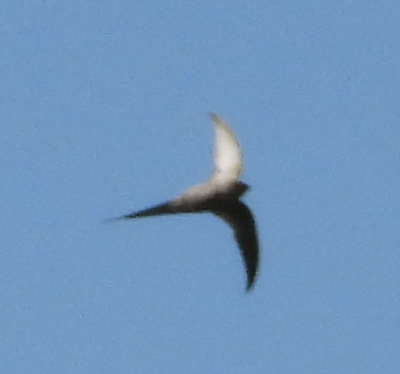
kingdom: Animalia
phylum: Chordata
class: Aves
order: Apodiformes
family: Apodidae
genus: Cypsiurus
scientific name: Cypsiurus parvus
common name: African palm swift
